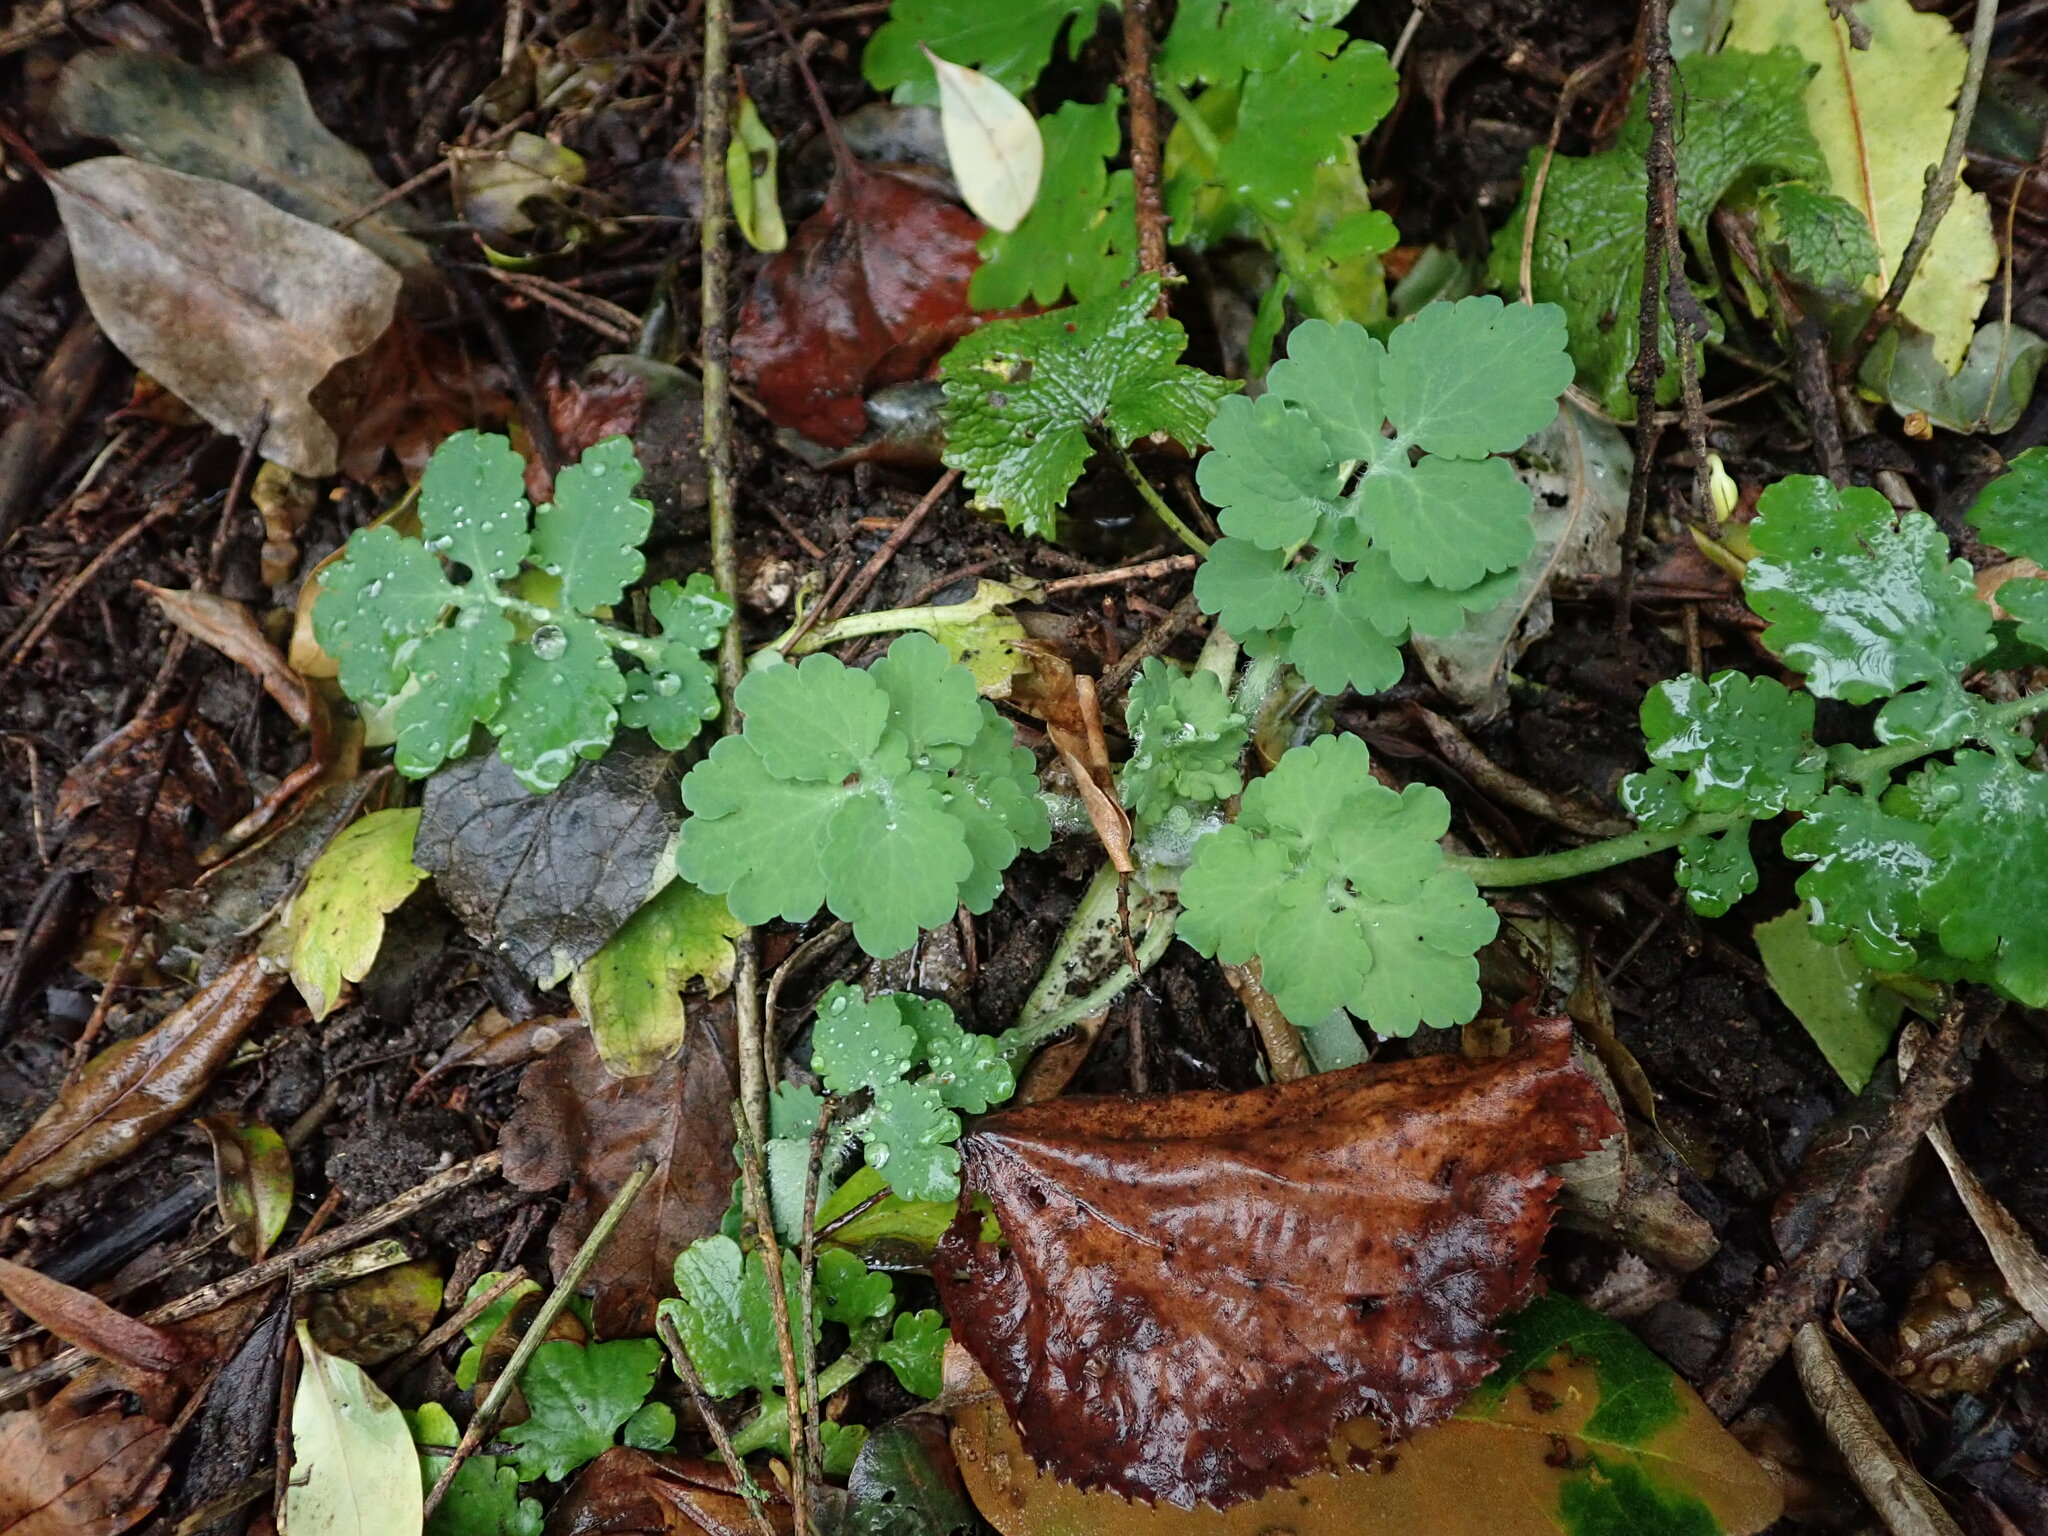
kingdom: Plantae
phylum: Tracheophyta
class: Magnoliopsida
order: Ranunculales
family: Papaveraceae
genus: Chelidonium
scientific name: Chelidonium majus
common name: Greater celandine
